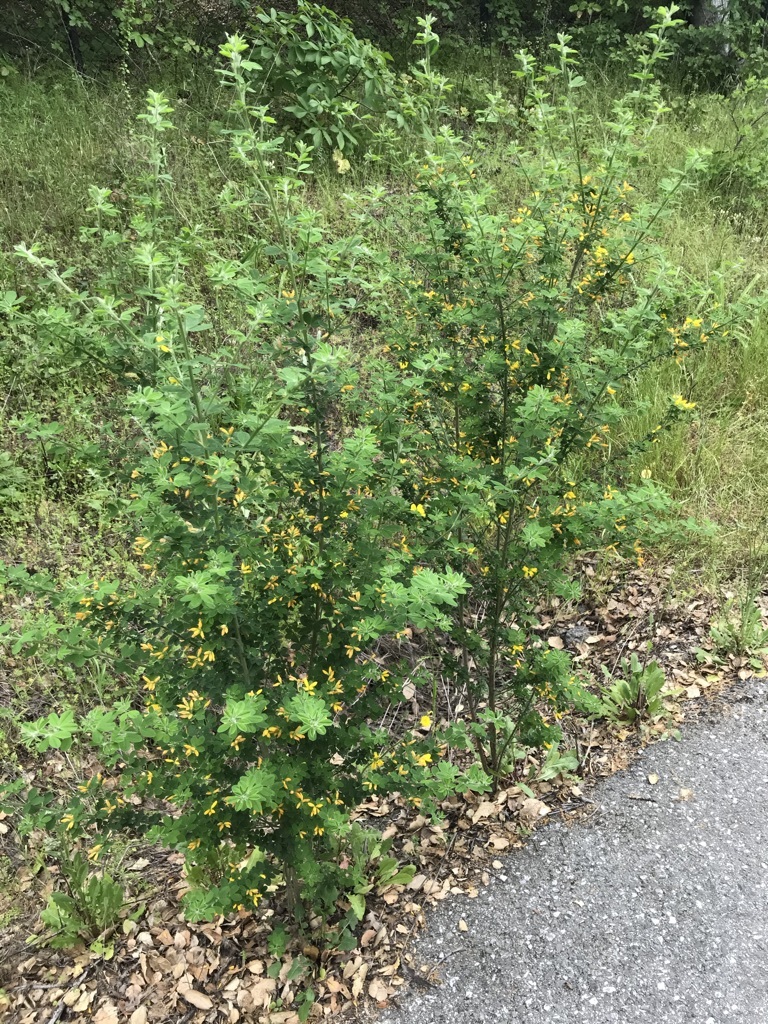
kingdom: Plantae
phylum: Tracheophyta
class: Magnoliopsida
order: Fabales
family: Fabaceae
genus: Genista
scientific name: Genista monspessulana
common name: Montpellier broom
